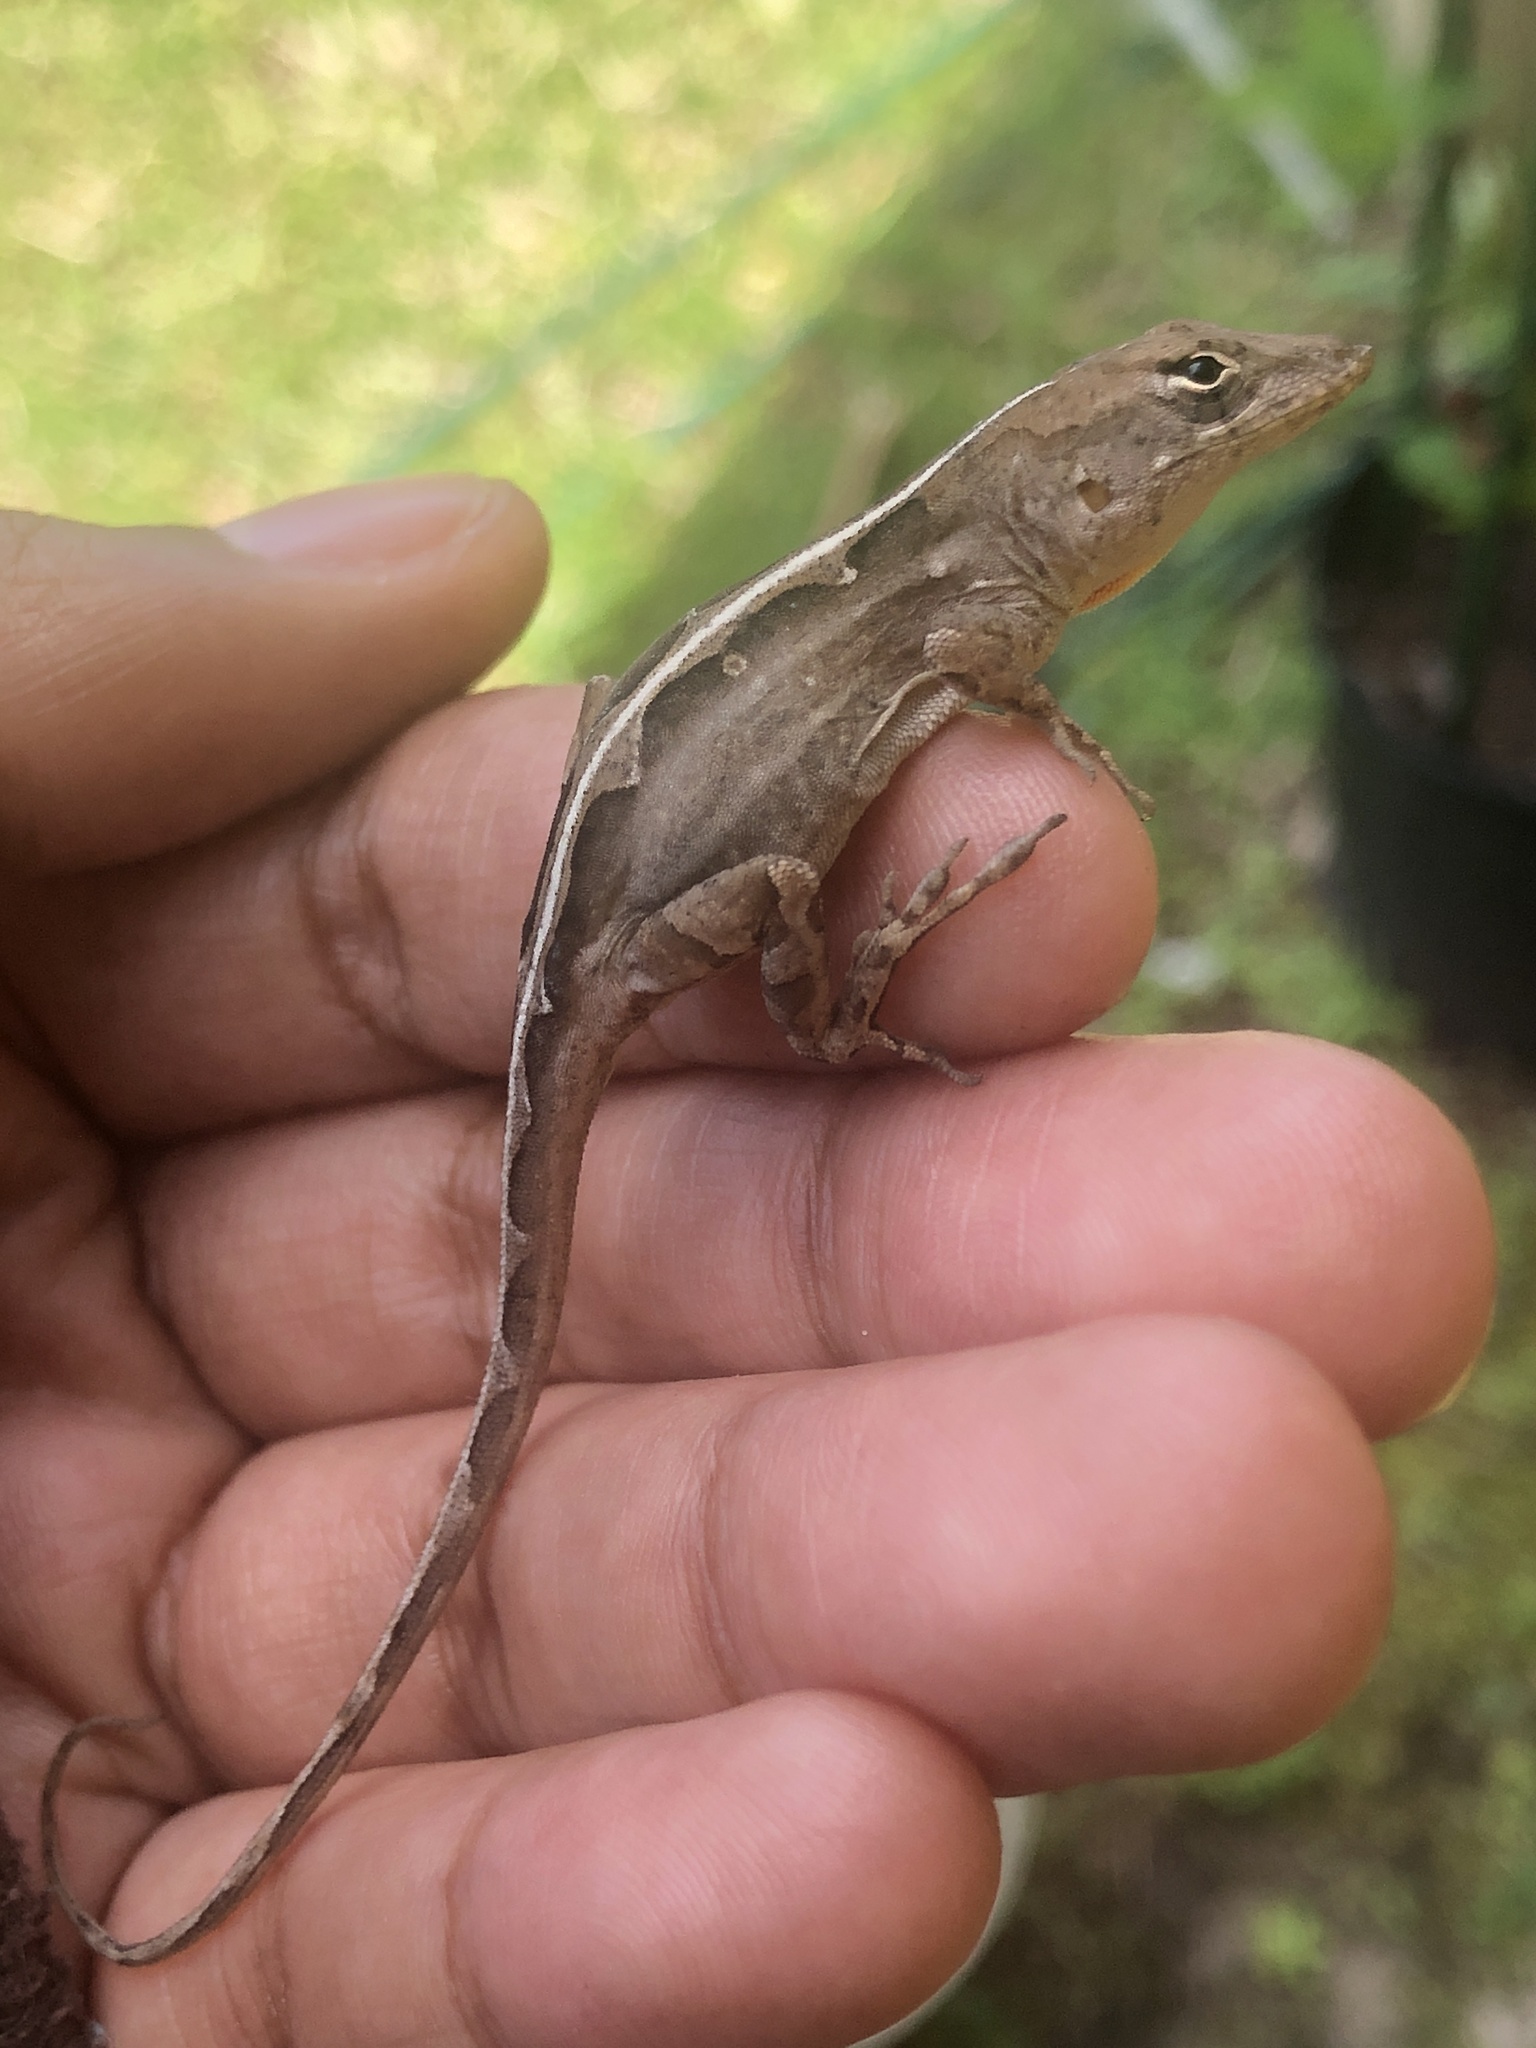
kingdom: Animalia
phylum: Chordata
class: Squamata
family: Dactyloidae
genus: Anolis
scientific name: Anolis sagrei
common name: Brown anole
